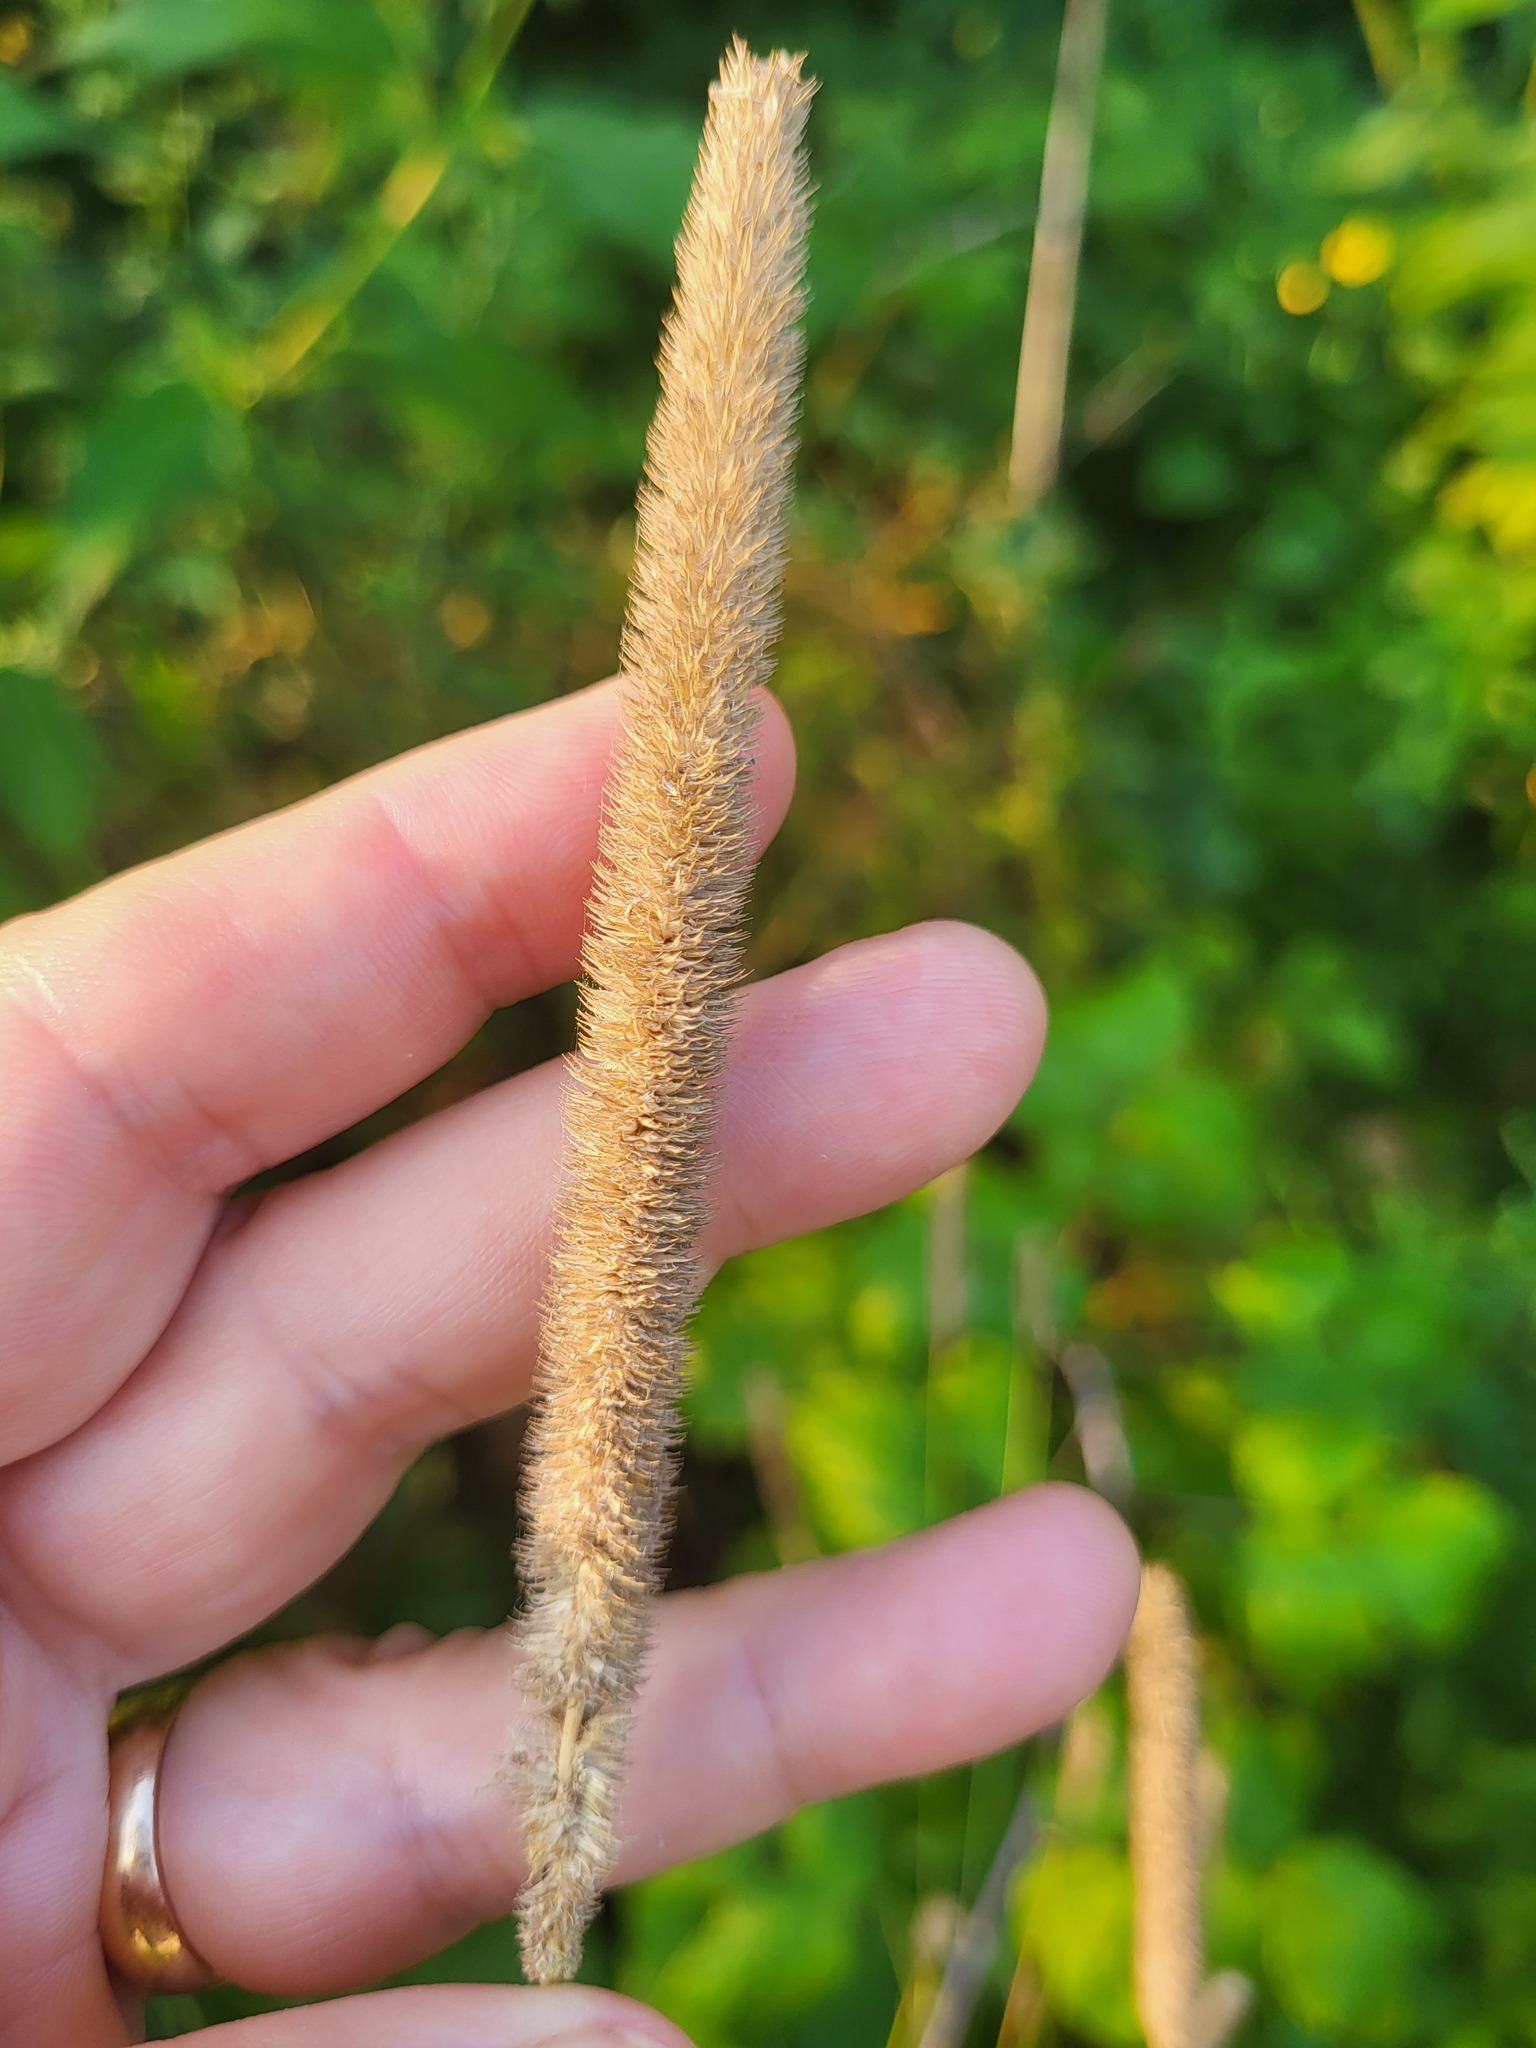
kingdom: Plantae
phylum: Tracheophyta
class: Liliopsida
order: Poales
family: Poaceae
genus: Phleum
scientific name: Phleum pratense
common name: Timothy grass
